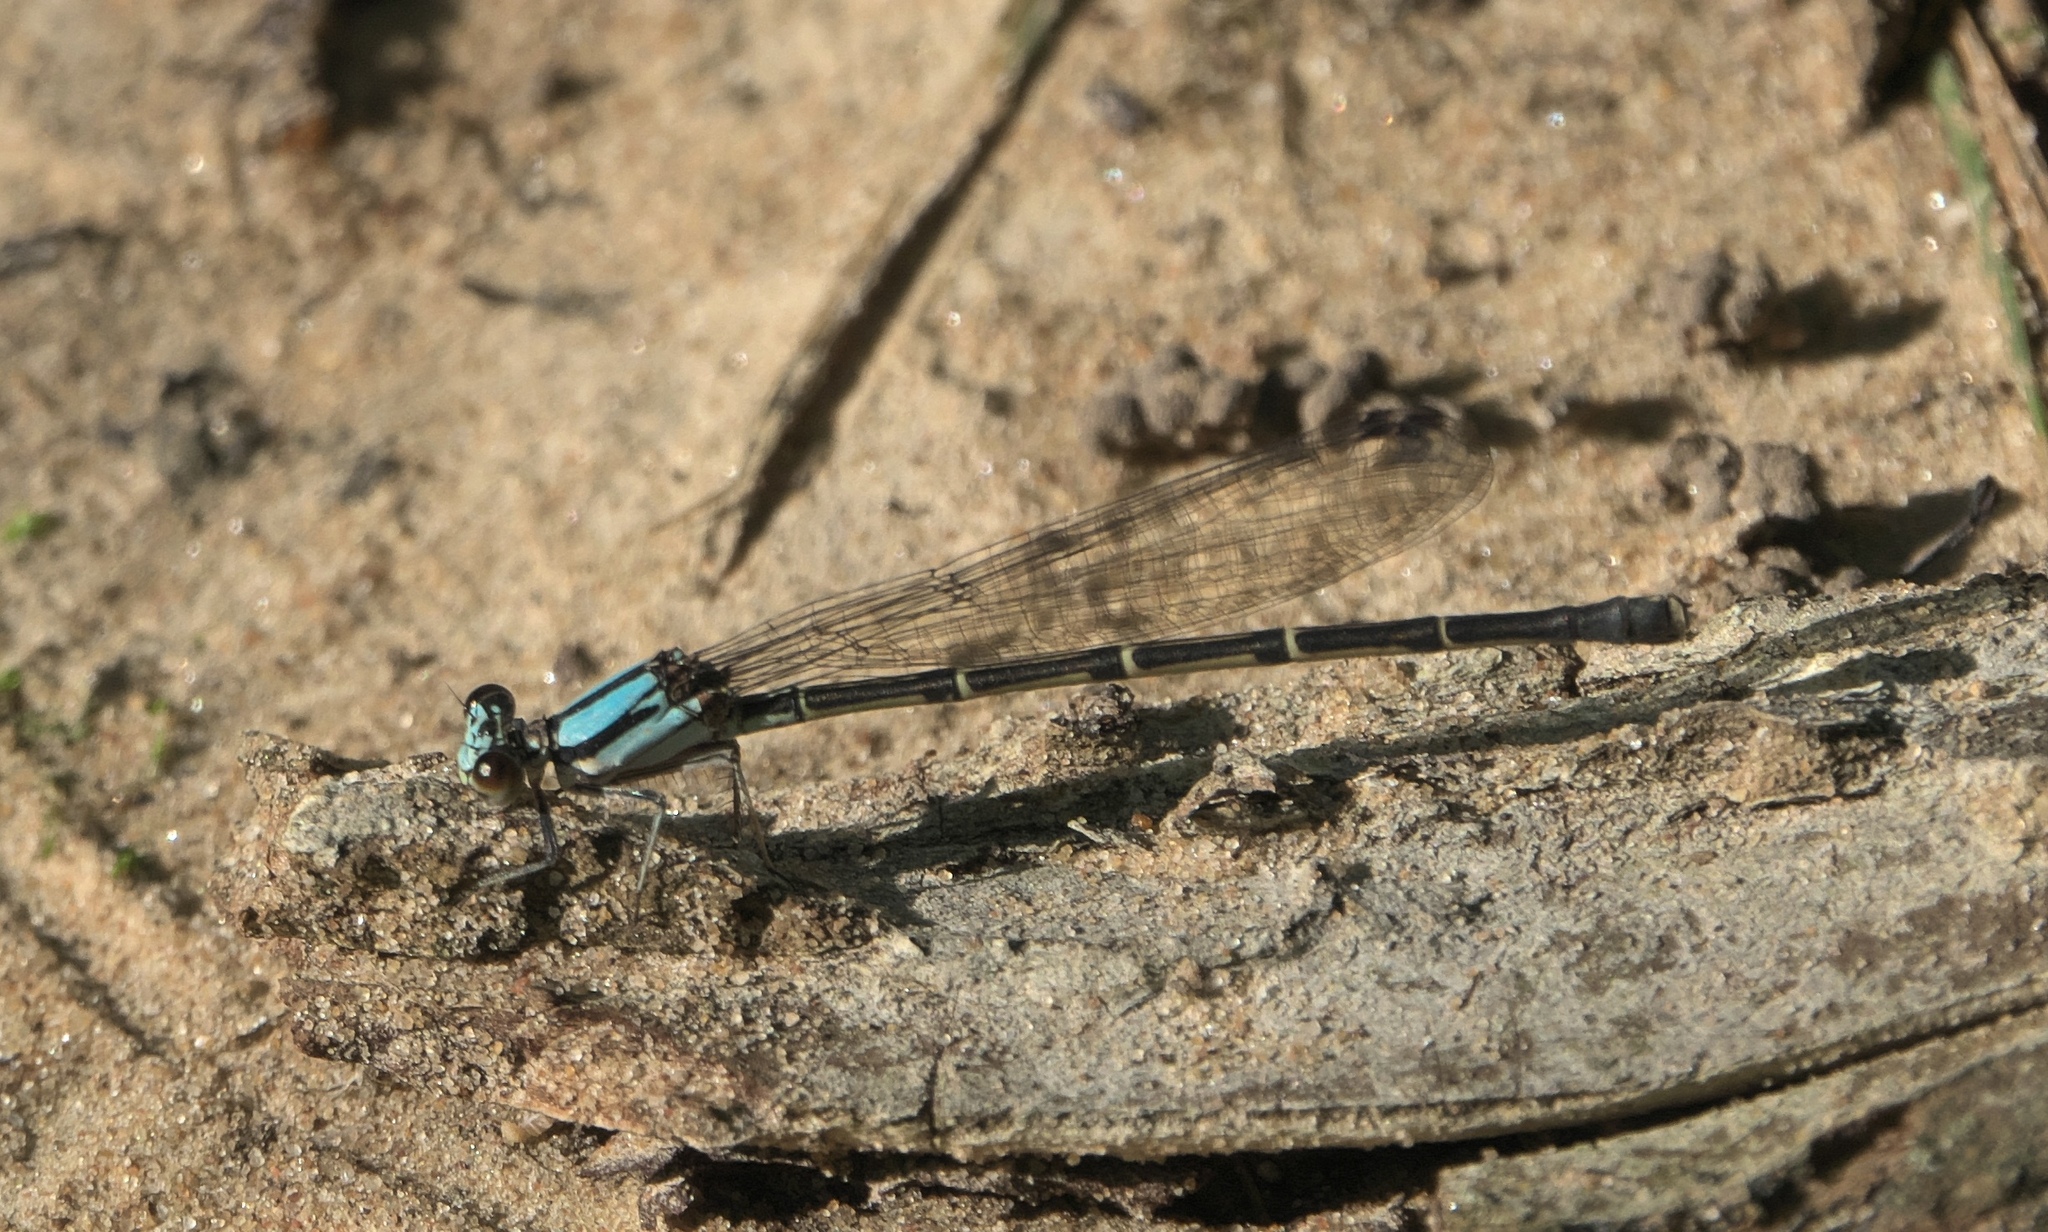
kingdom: Animalia
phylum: Arthropoda
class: Insecta
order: Odonata
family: Coenagrionidae
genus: Argia
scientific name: Argia tibialis
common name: Blue-tipped dancer
